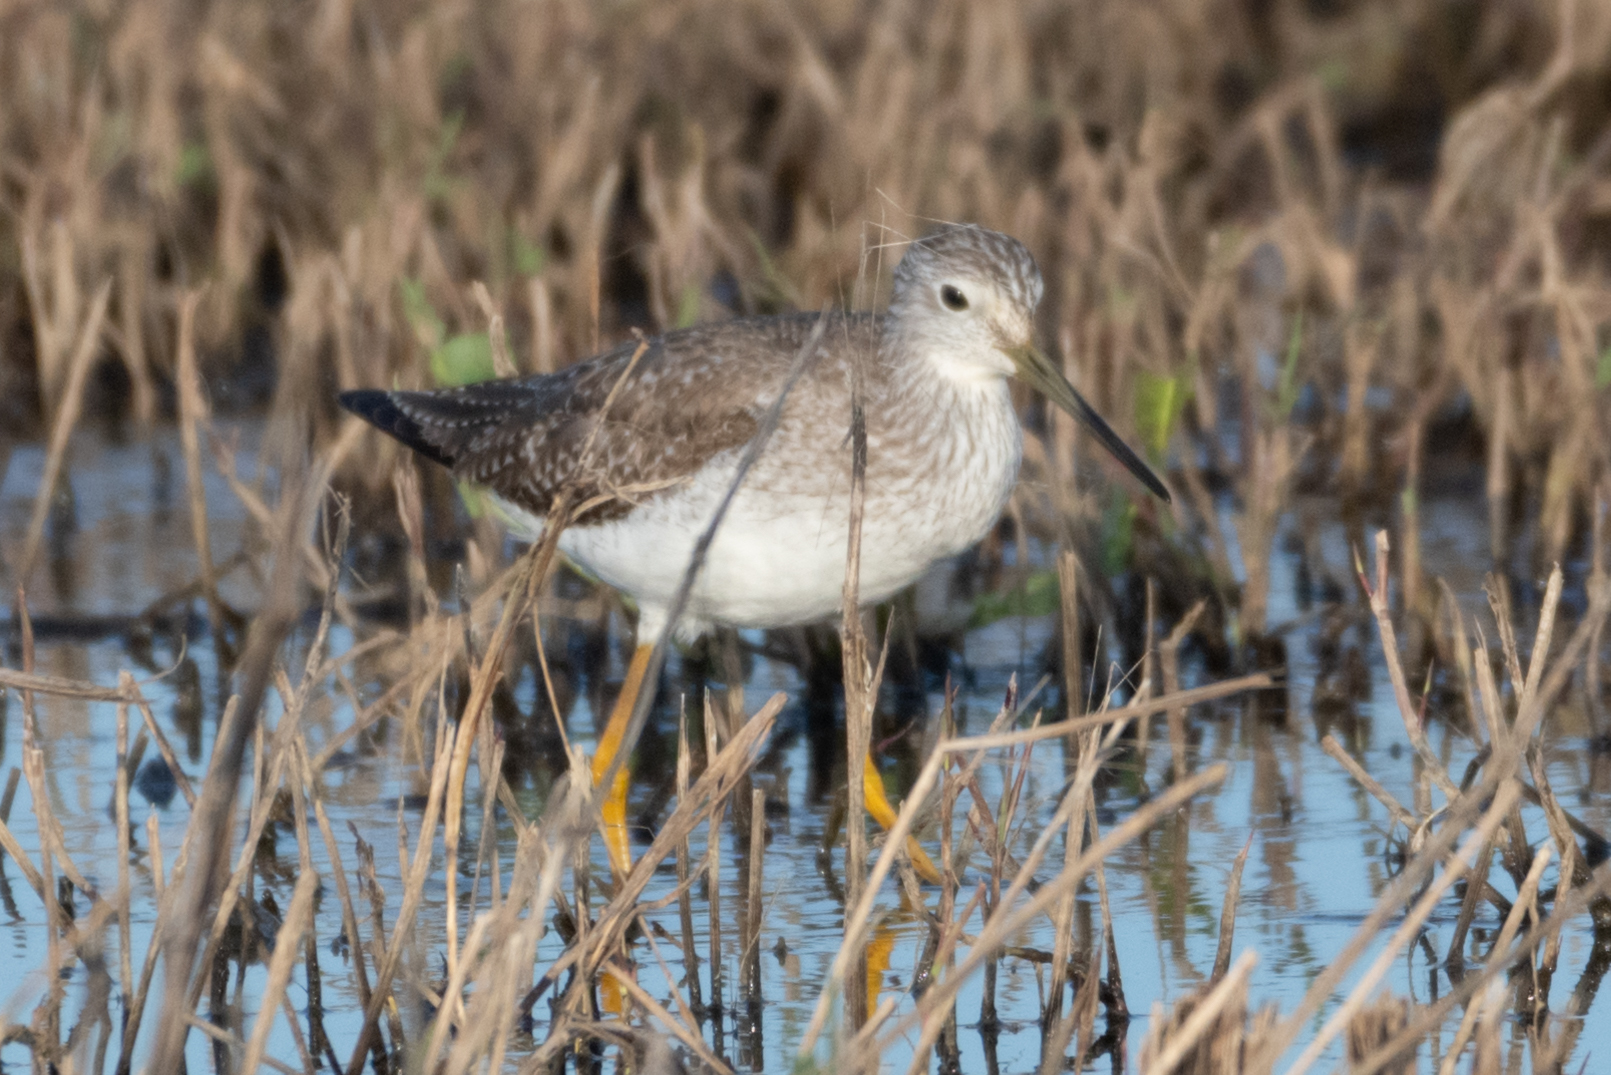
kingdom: Animalia
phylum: Chordata
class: Aves
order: Charadriiformes
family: Scolopacidae
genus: Tringa
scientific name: Tringa melanoleuca
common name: Greater yellowlegs
